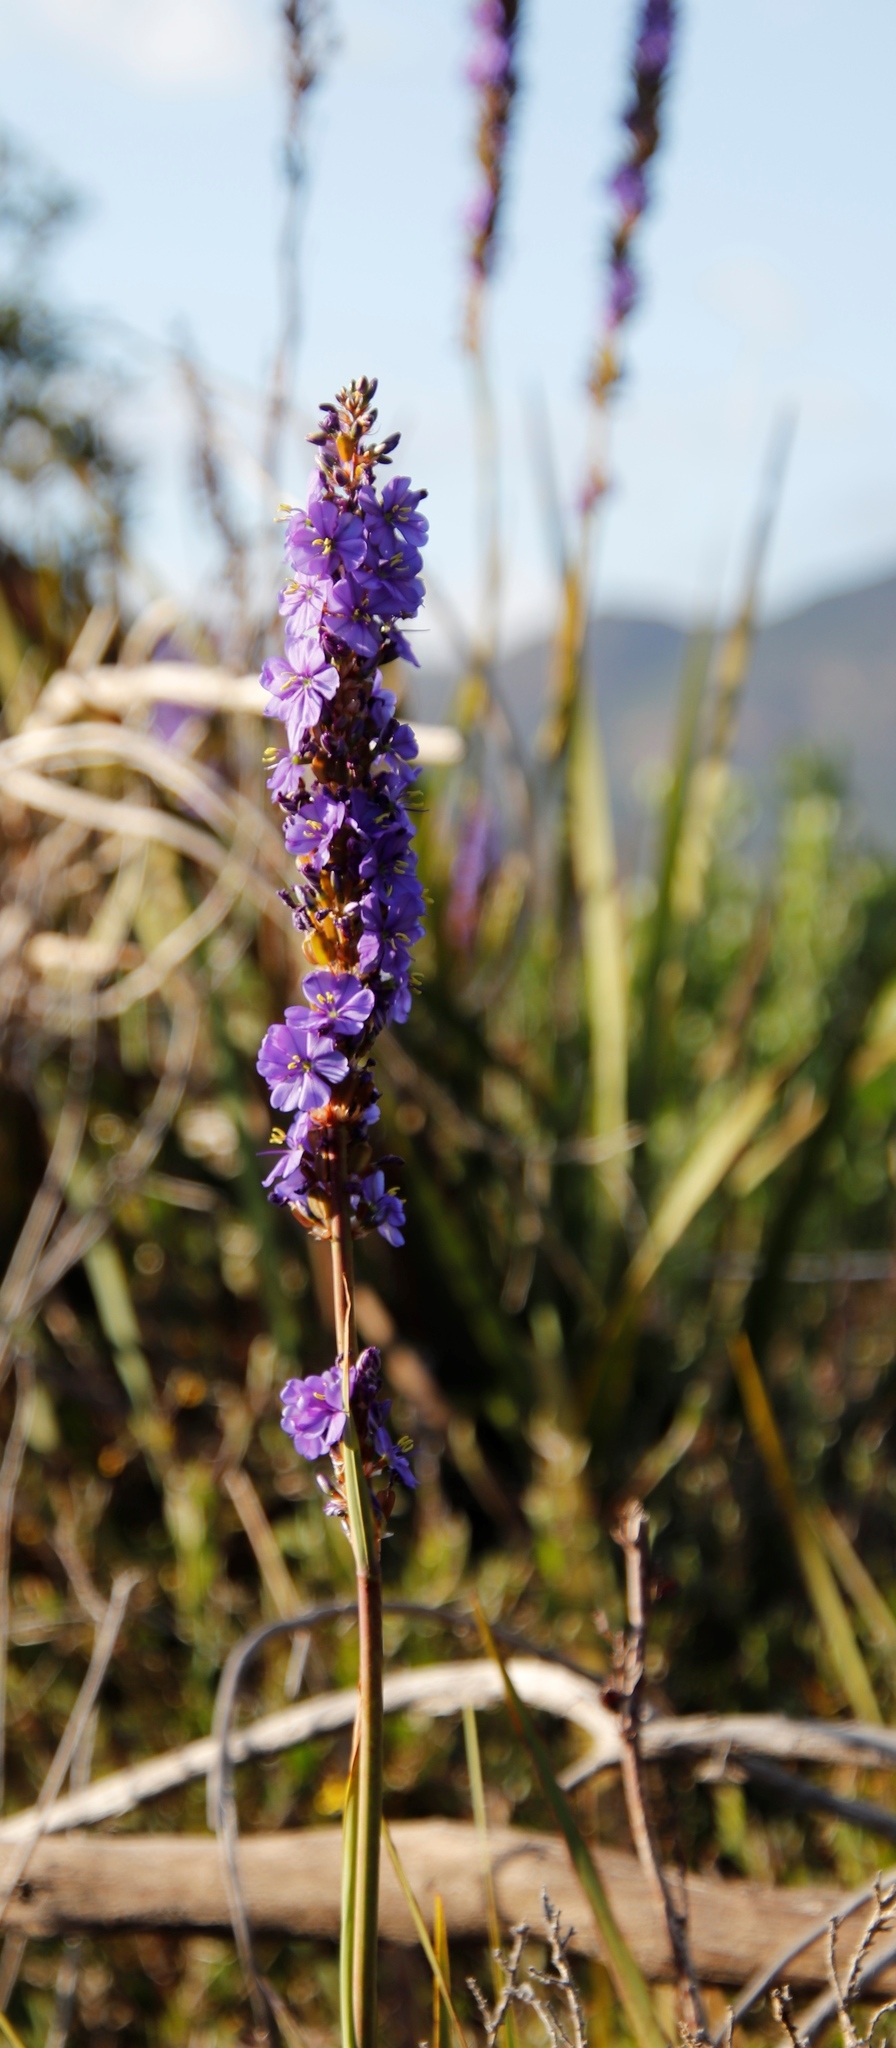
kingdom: Plantae
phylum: Tracheophyta
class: Liliopsida
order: Asparagales
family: Iridaceae
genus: Aristea
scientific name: Aristea capitata
